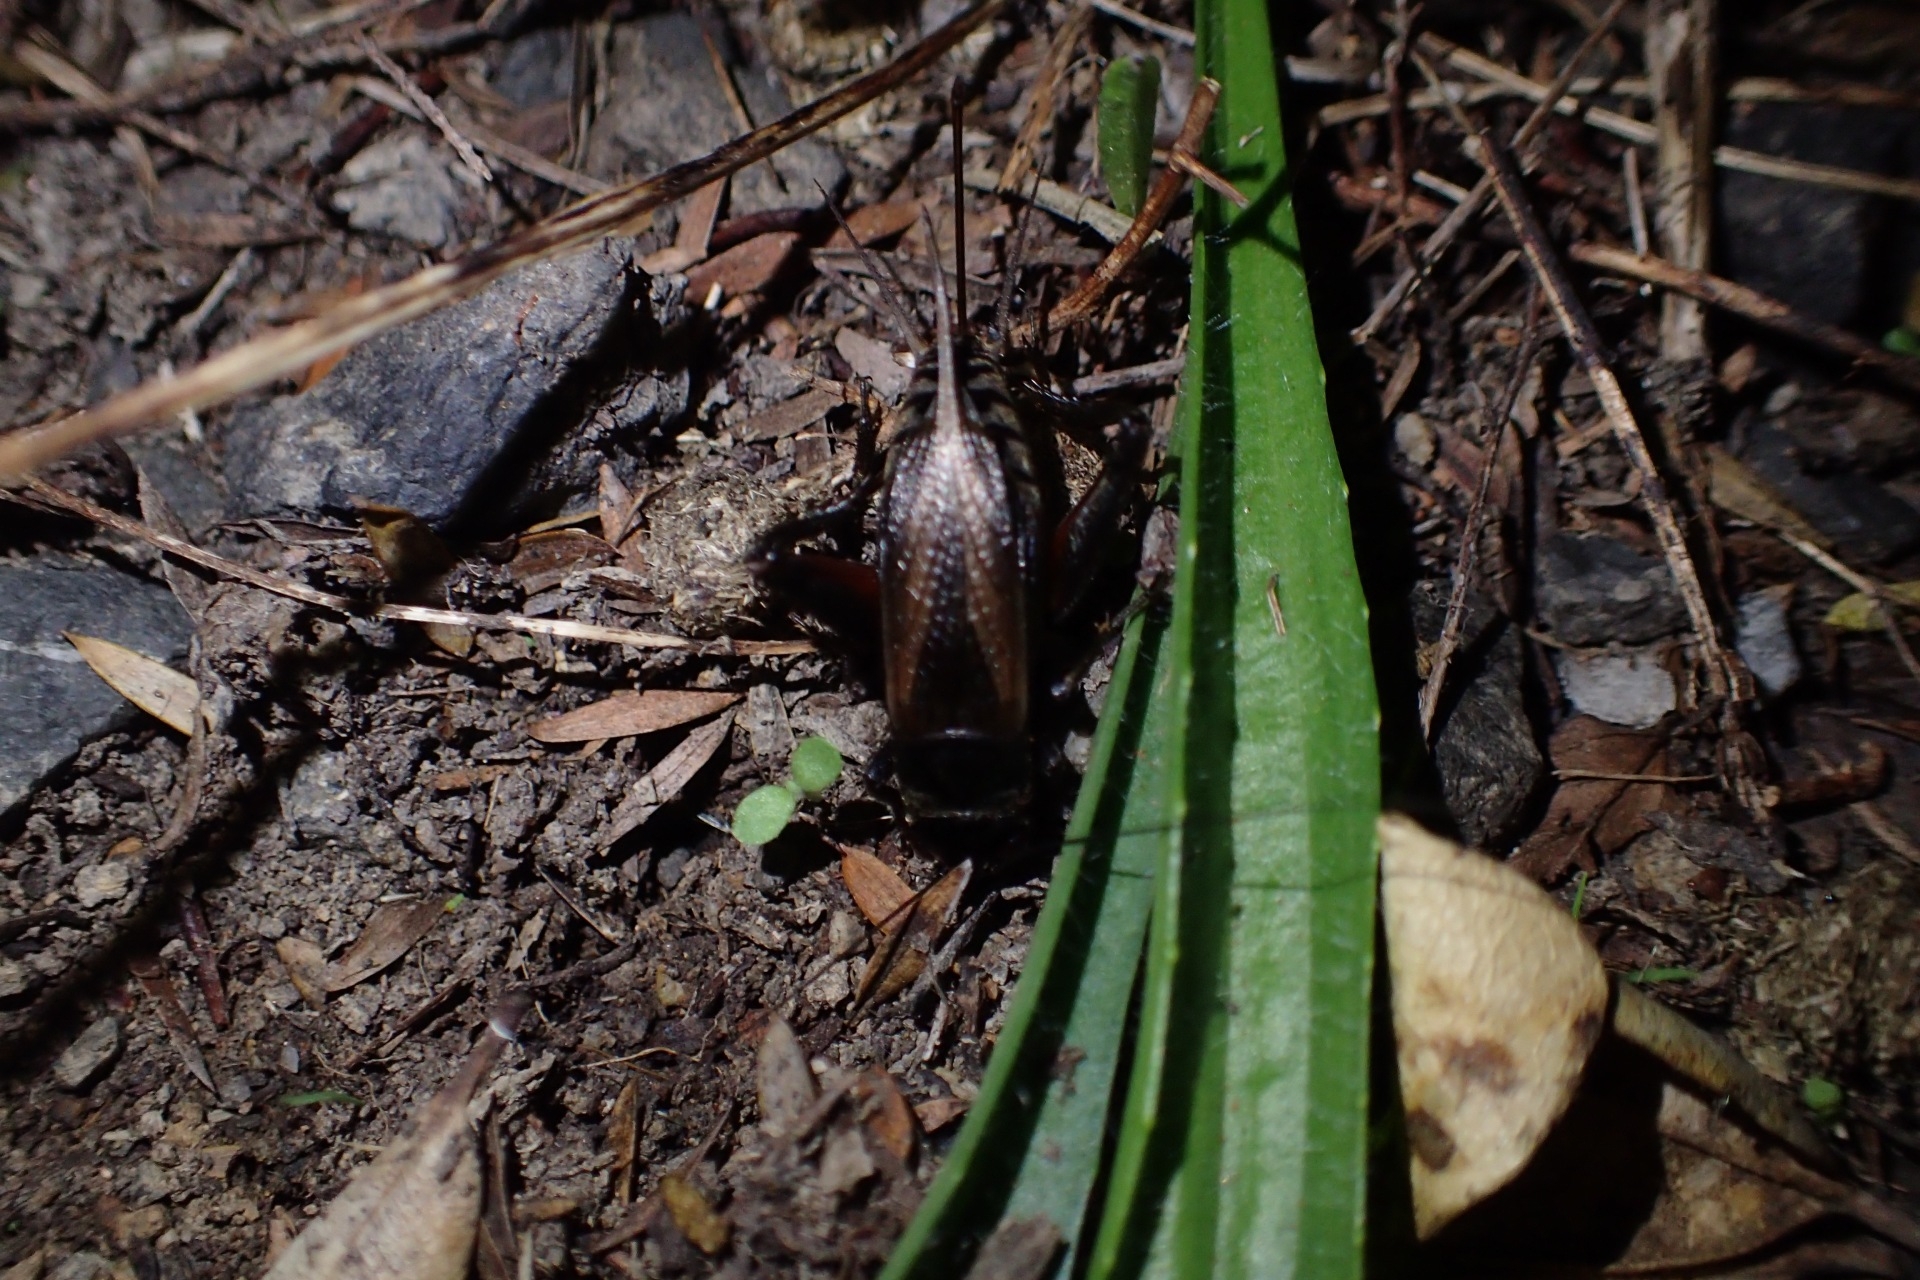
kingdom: Animalia
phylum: Arthropoda
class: Insecta
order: Orthoptera
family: Gryllidae
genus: Teleogryllus
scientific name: Teleogryllus commodus
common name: Black field cricket
